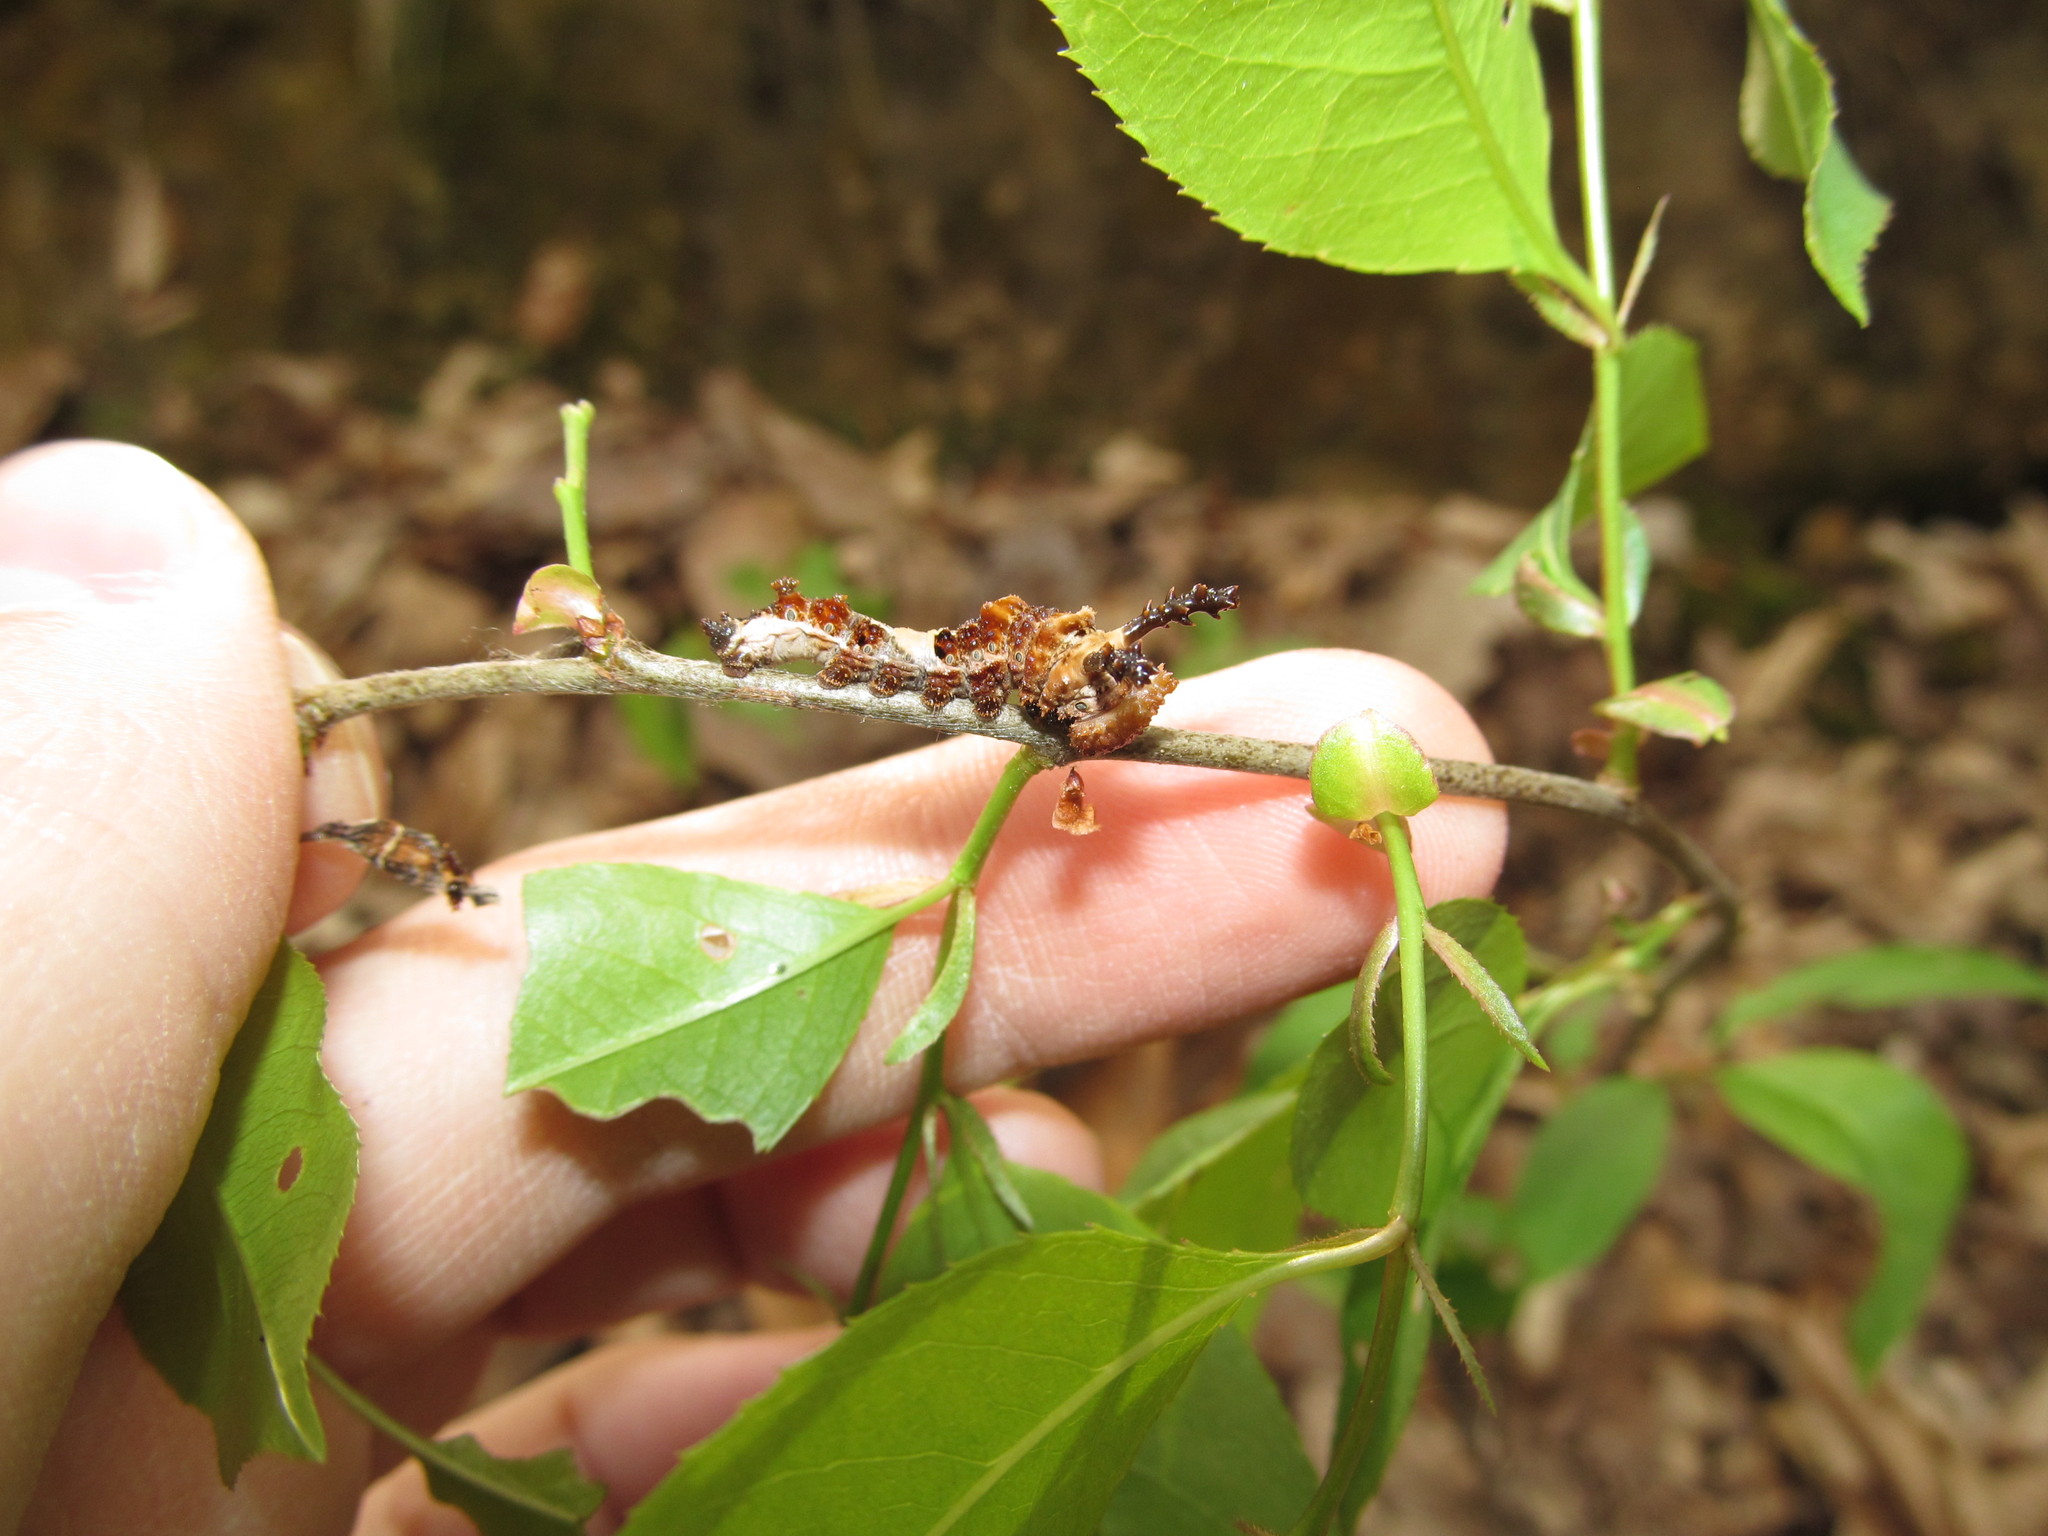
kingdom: Animalia
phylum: Arthropoda
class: Insecta
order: Lepidoptera
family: Nymphalidae
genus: Limenitis
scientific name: Limenitis astyanax
